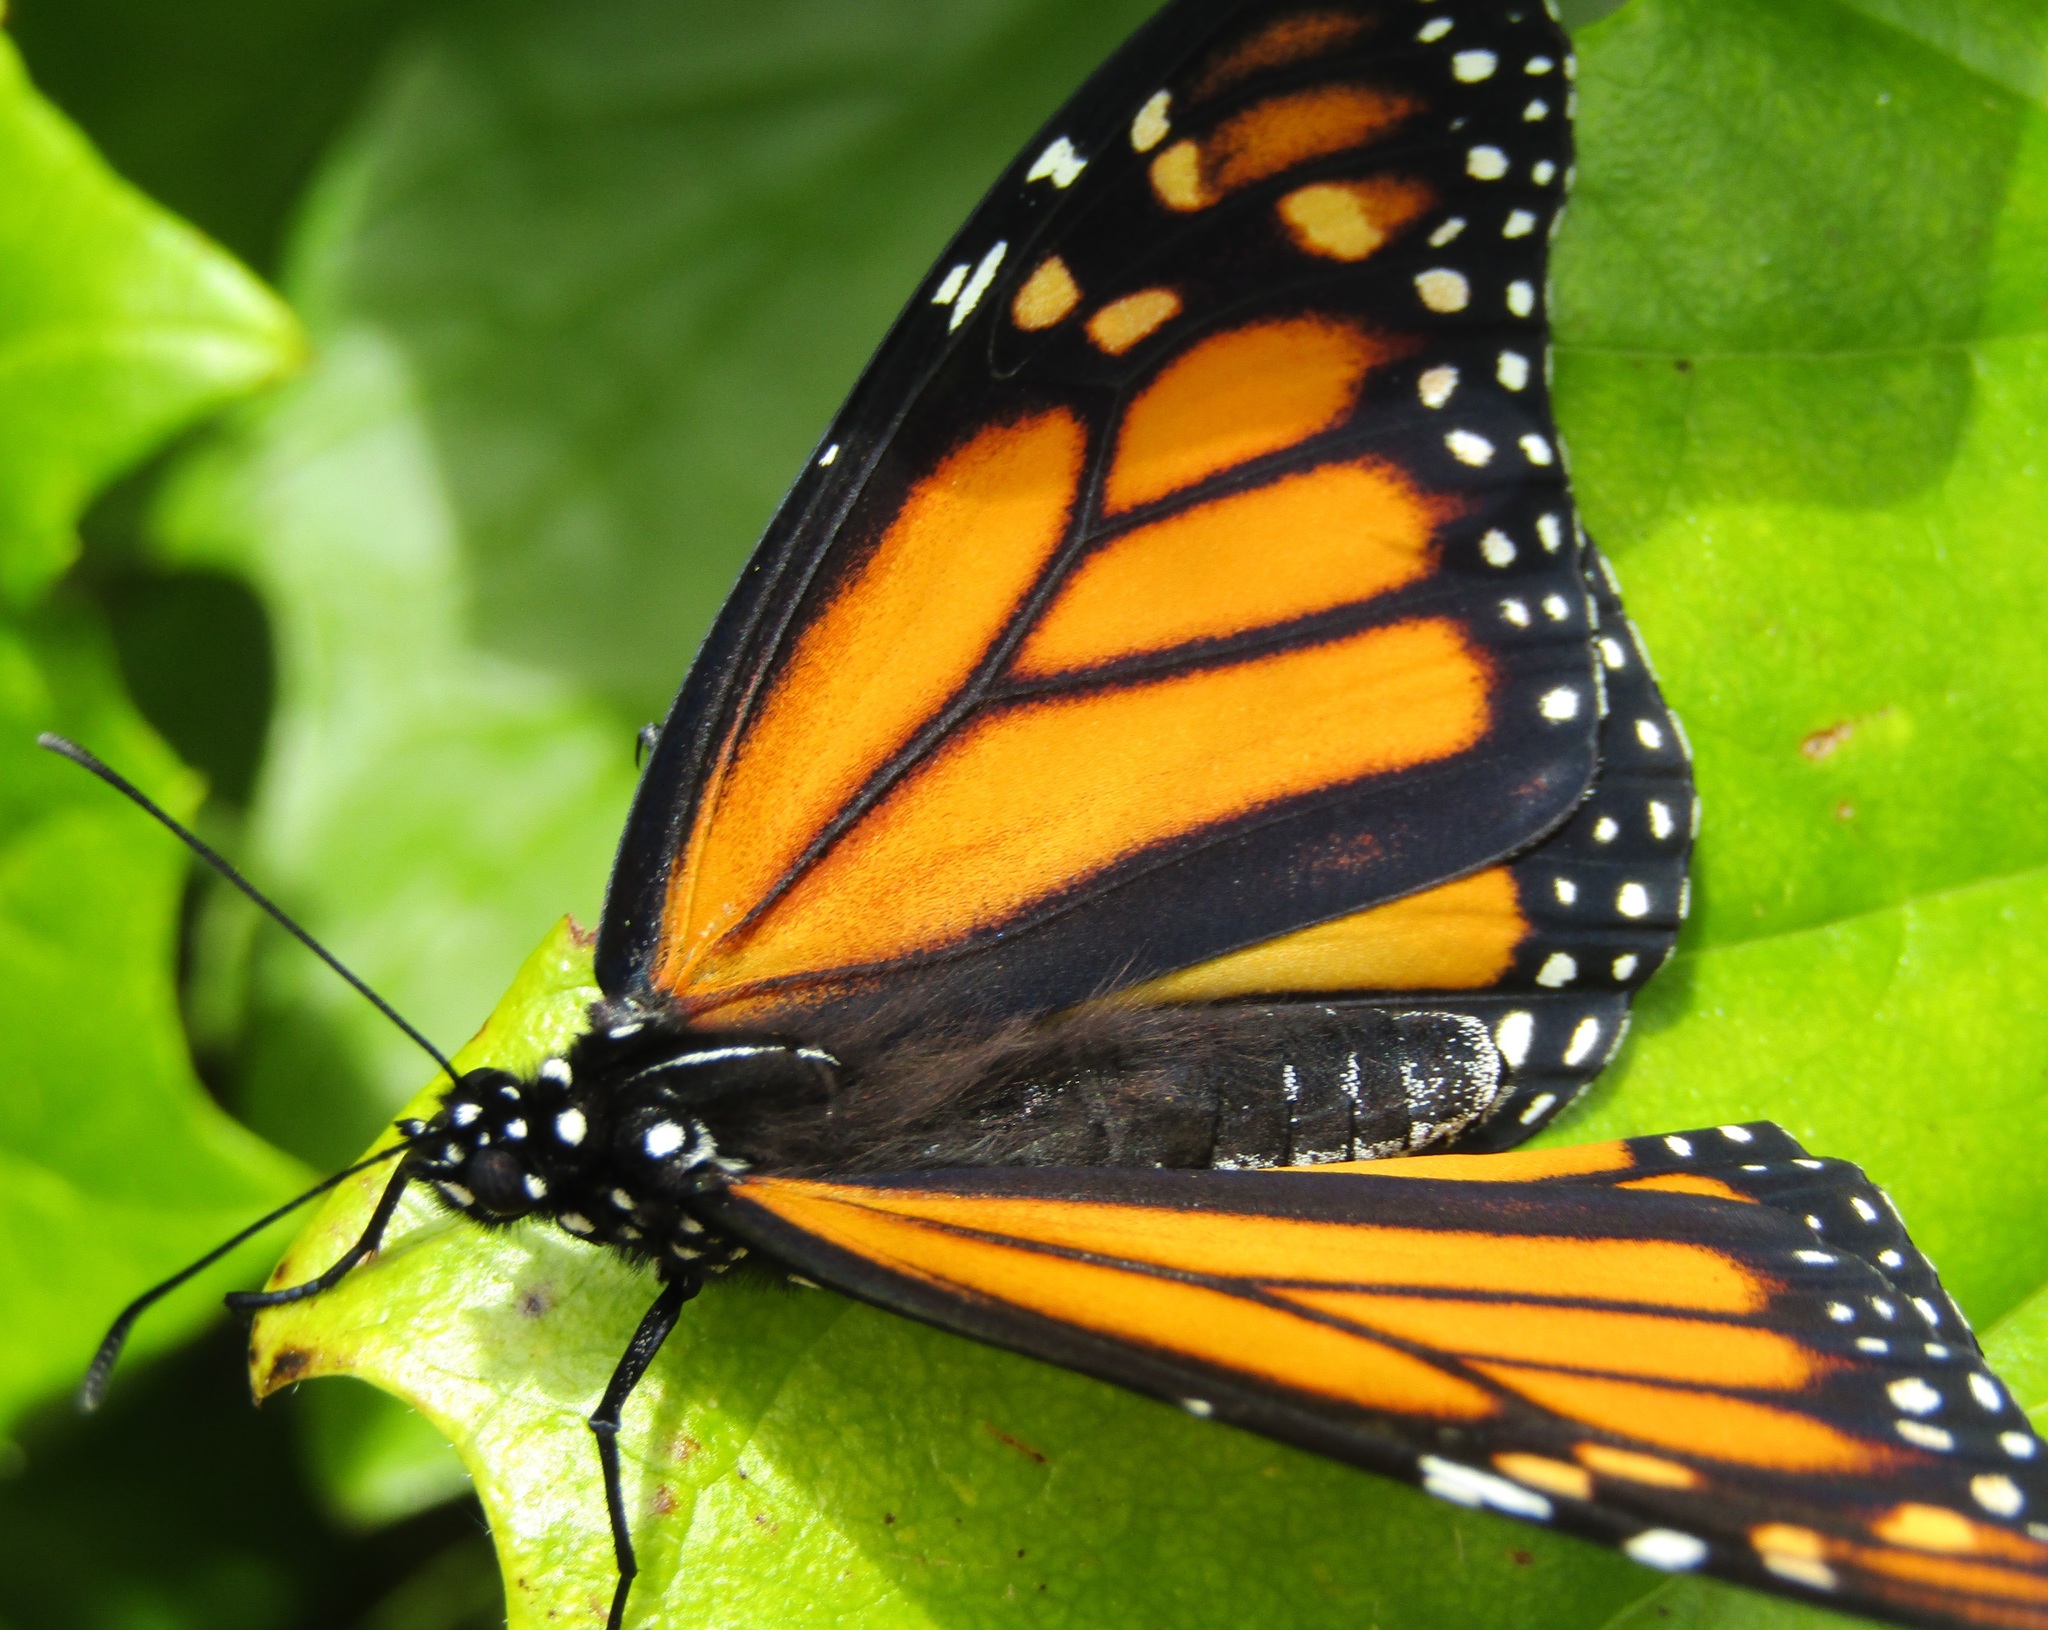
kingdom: Animalia
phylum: Arthropoda
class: Insecta
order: Lepidoptera
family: Nymphalidae
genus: Danaus
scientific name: Danaus plexippus
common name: Monarch
